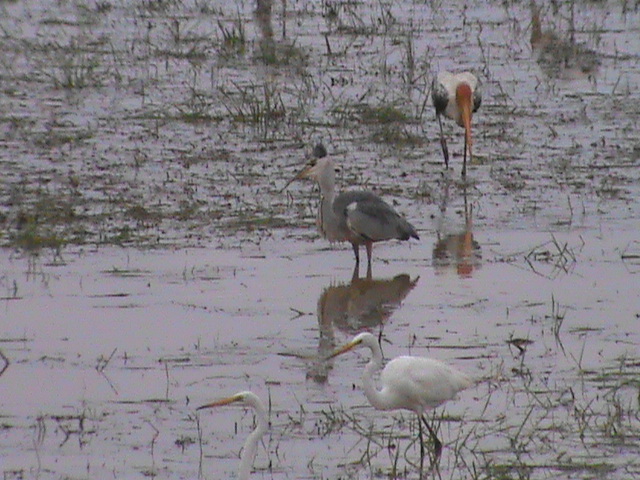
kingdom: Animalia
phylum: Chordata
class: Aves
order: Pelecaniformes
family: Ardeidae
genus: Ardea
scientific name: Ardea cinerea
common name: Grey heron
